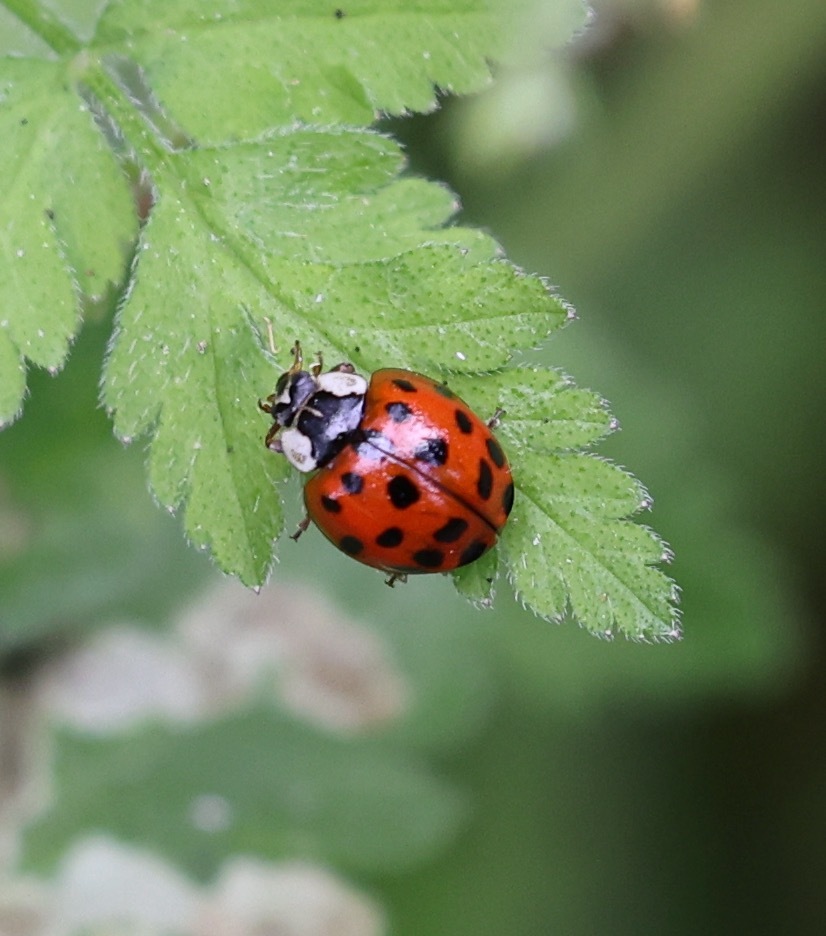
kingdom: Animalia
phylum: Arthropoda
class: Insecta
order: Coleoptera
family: Coccinellidae
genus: Harmonia
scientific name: Harmonia axyridis
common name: Harlequin ladybird
